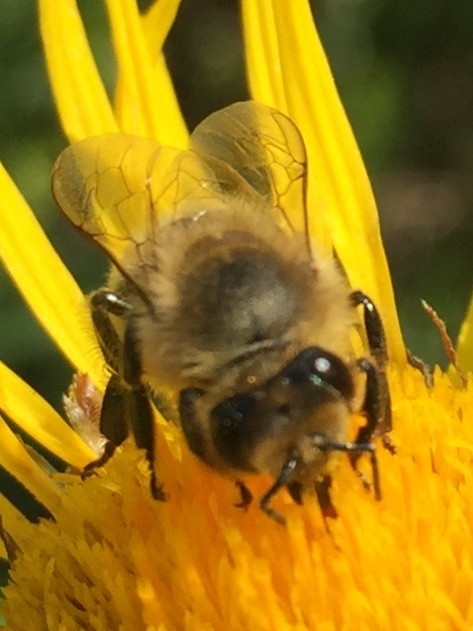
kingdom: Animalia
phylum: Arthropoda
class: Insecta
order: Hymenoptera
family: Apidae
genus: Apis
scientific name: Apis mellifera
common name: Honey bee
